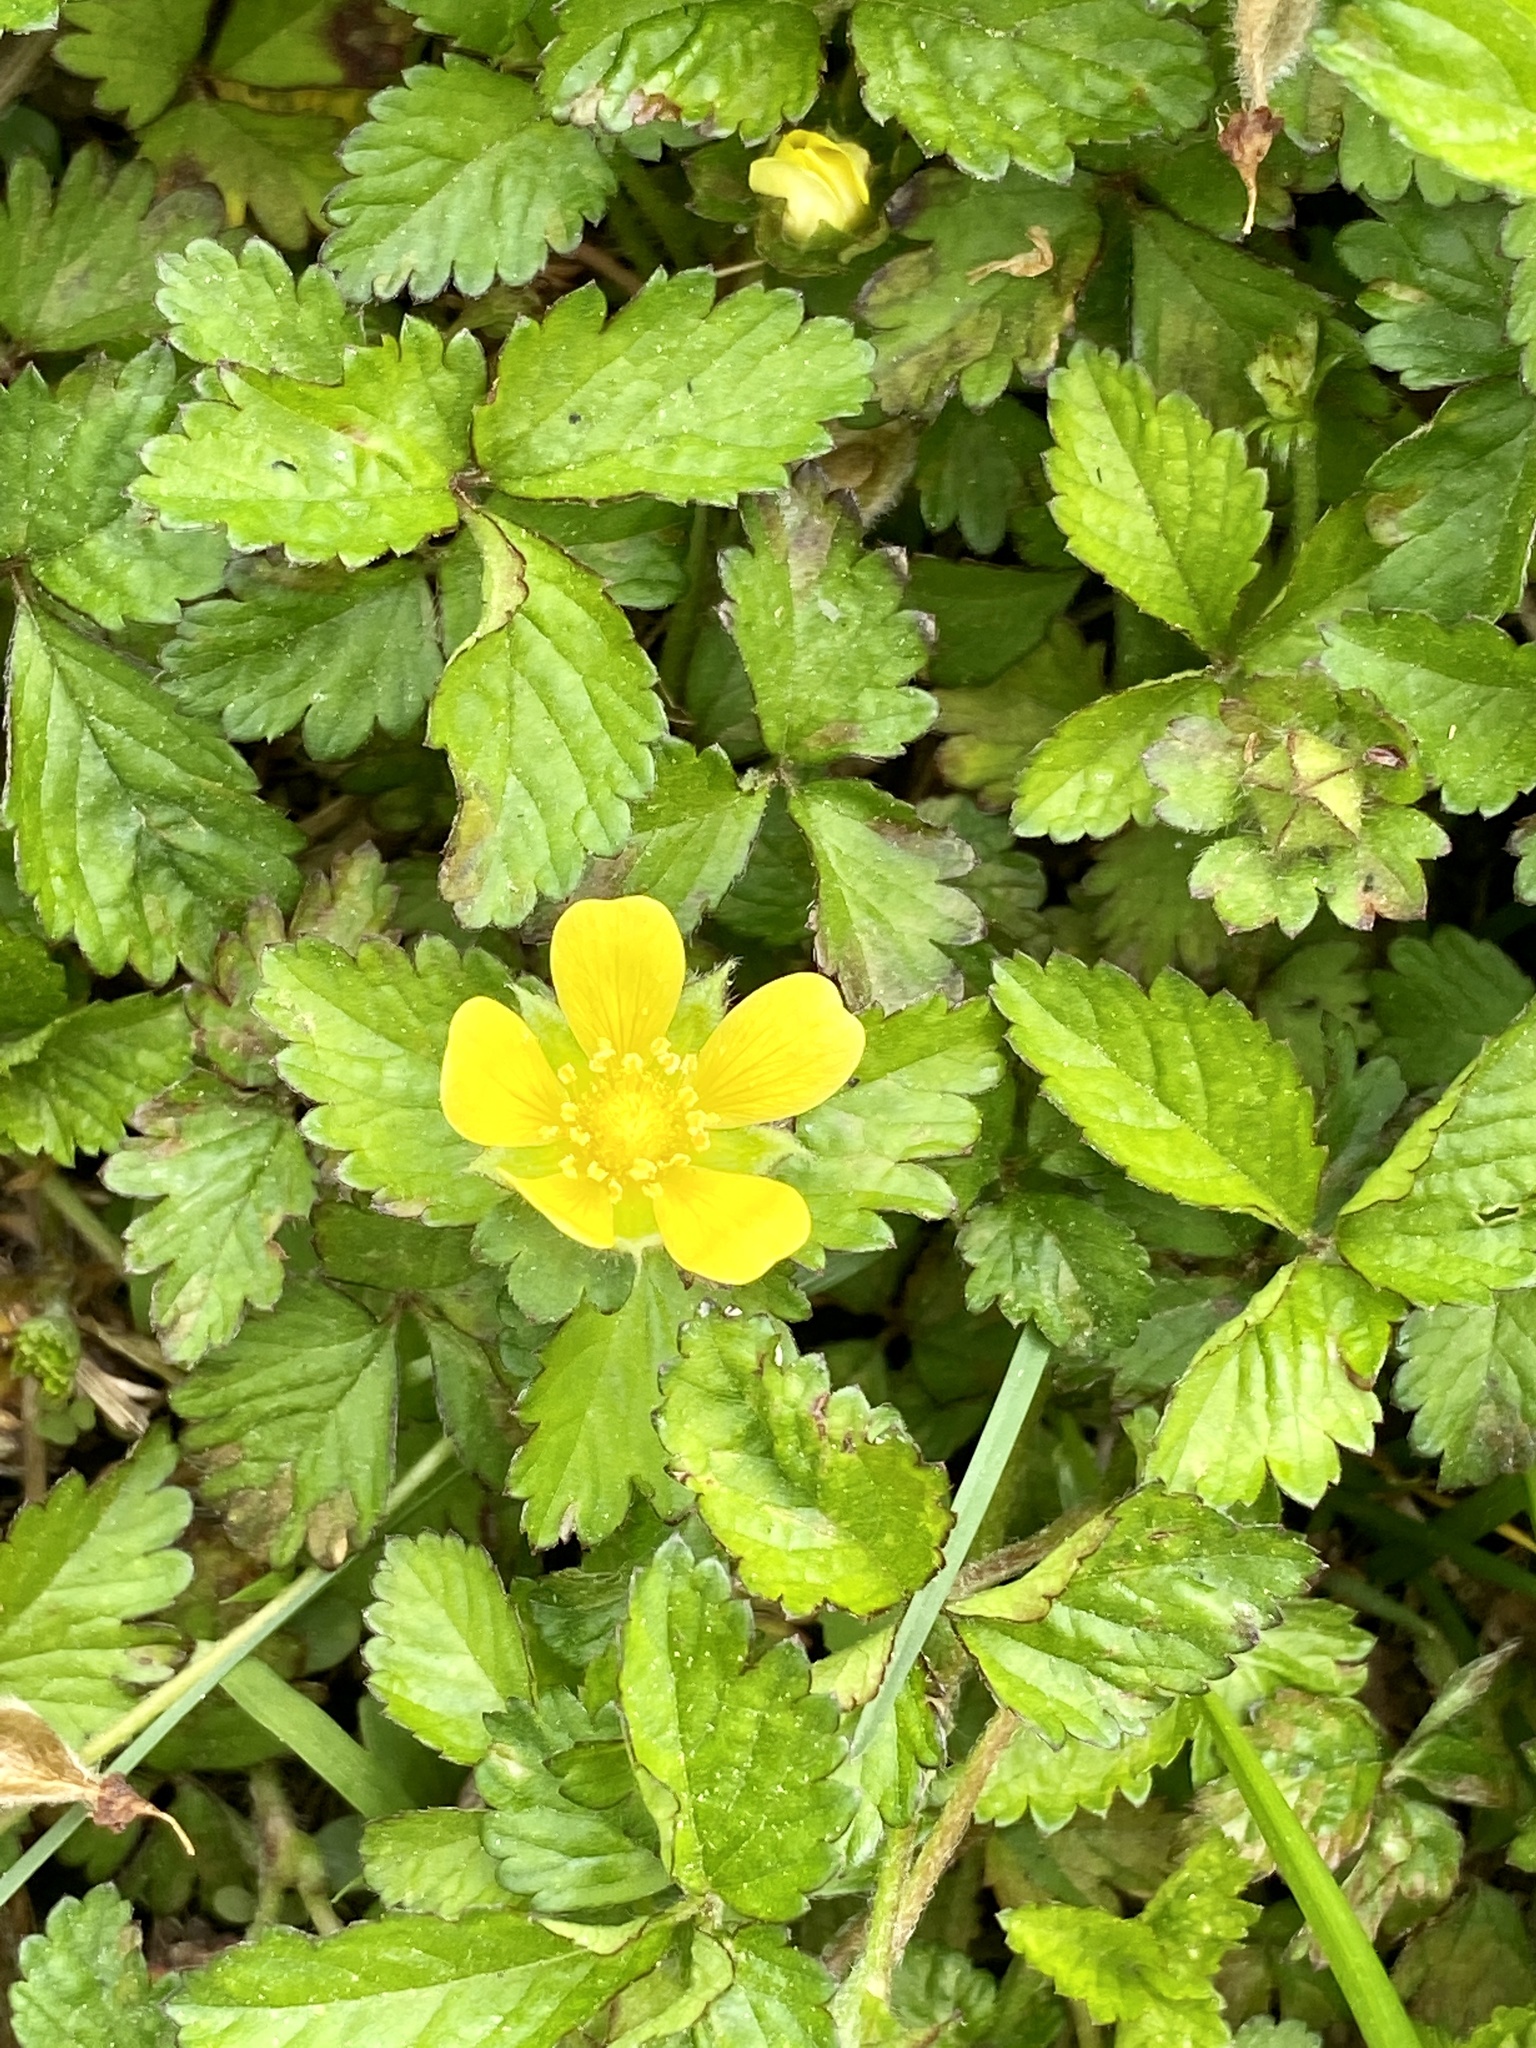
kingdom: Plantae
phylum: Tracheophyta
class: Magnoliopsida
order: Rosales
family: Rosaceae
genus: Potentilla
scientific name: Potentilla indica
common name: Yellow-flowered strawberry
